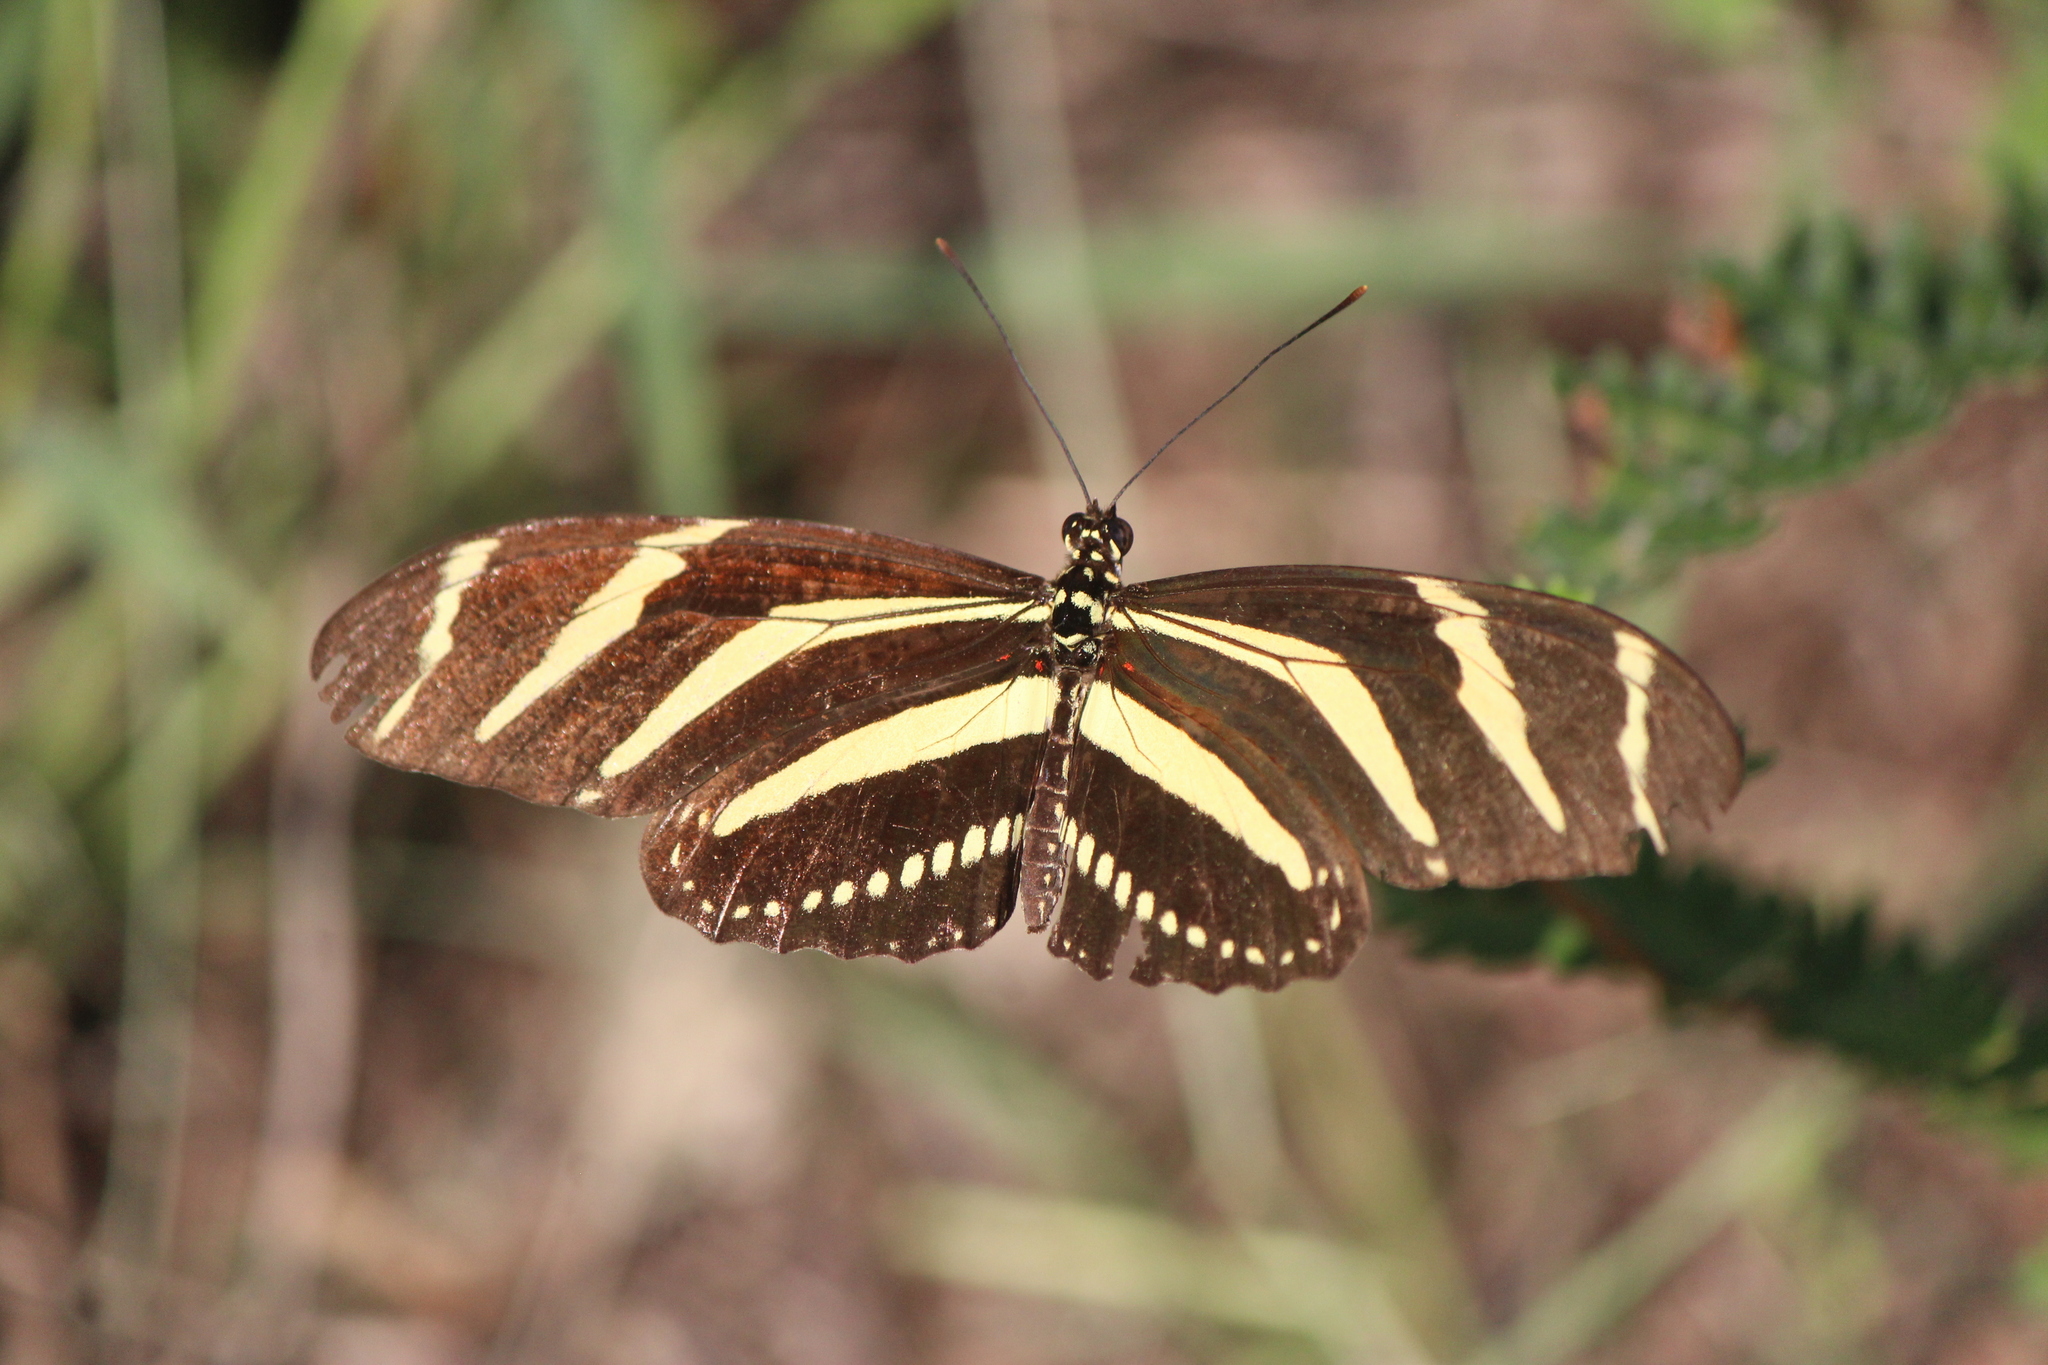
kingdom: Animalia
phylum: Arthropoda
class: Insecta
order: Lepidoptera
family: Nymphalidae
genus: Heliconius
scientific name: Heliconius charithonia
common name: Zebra long wing
